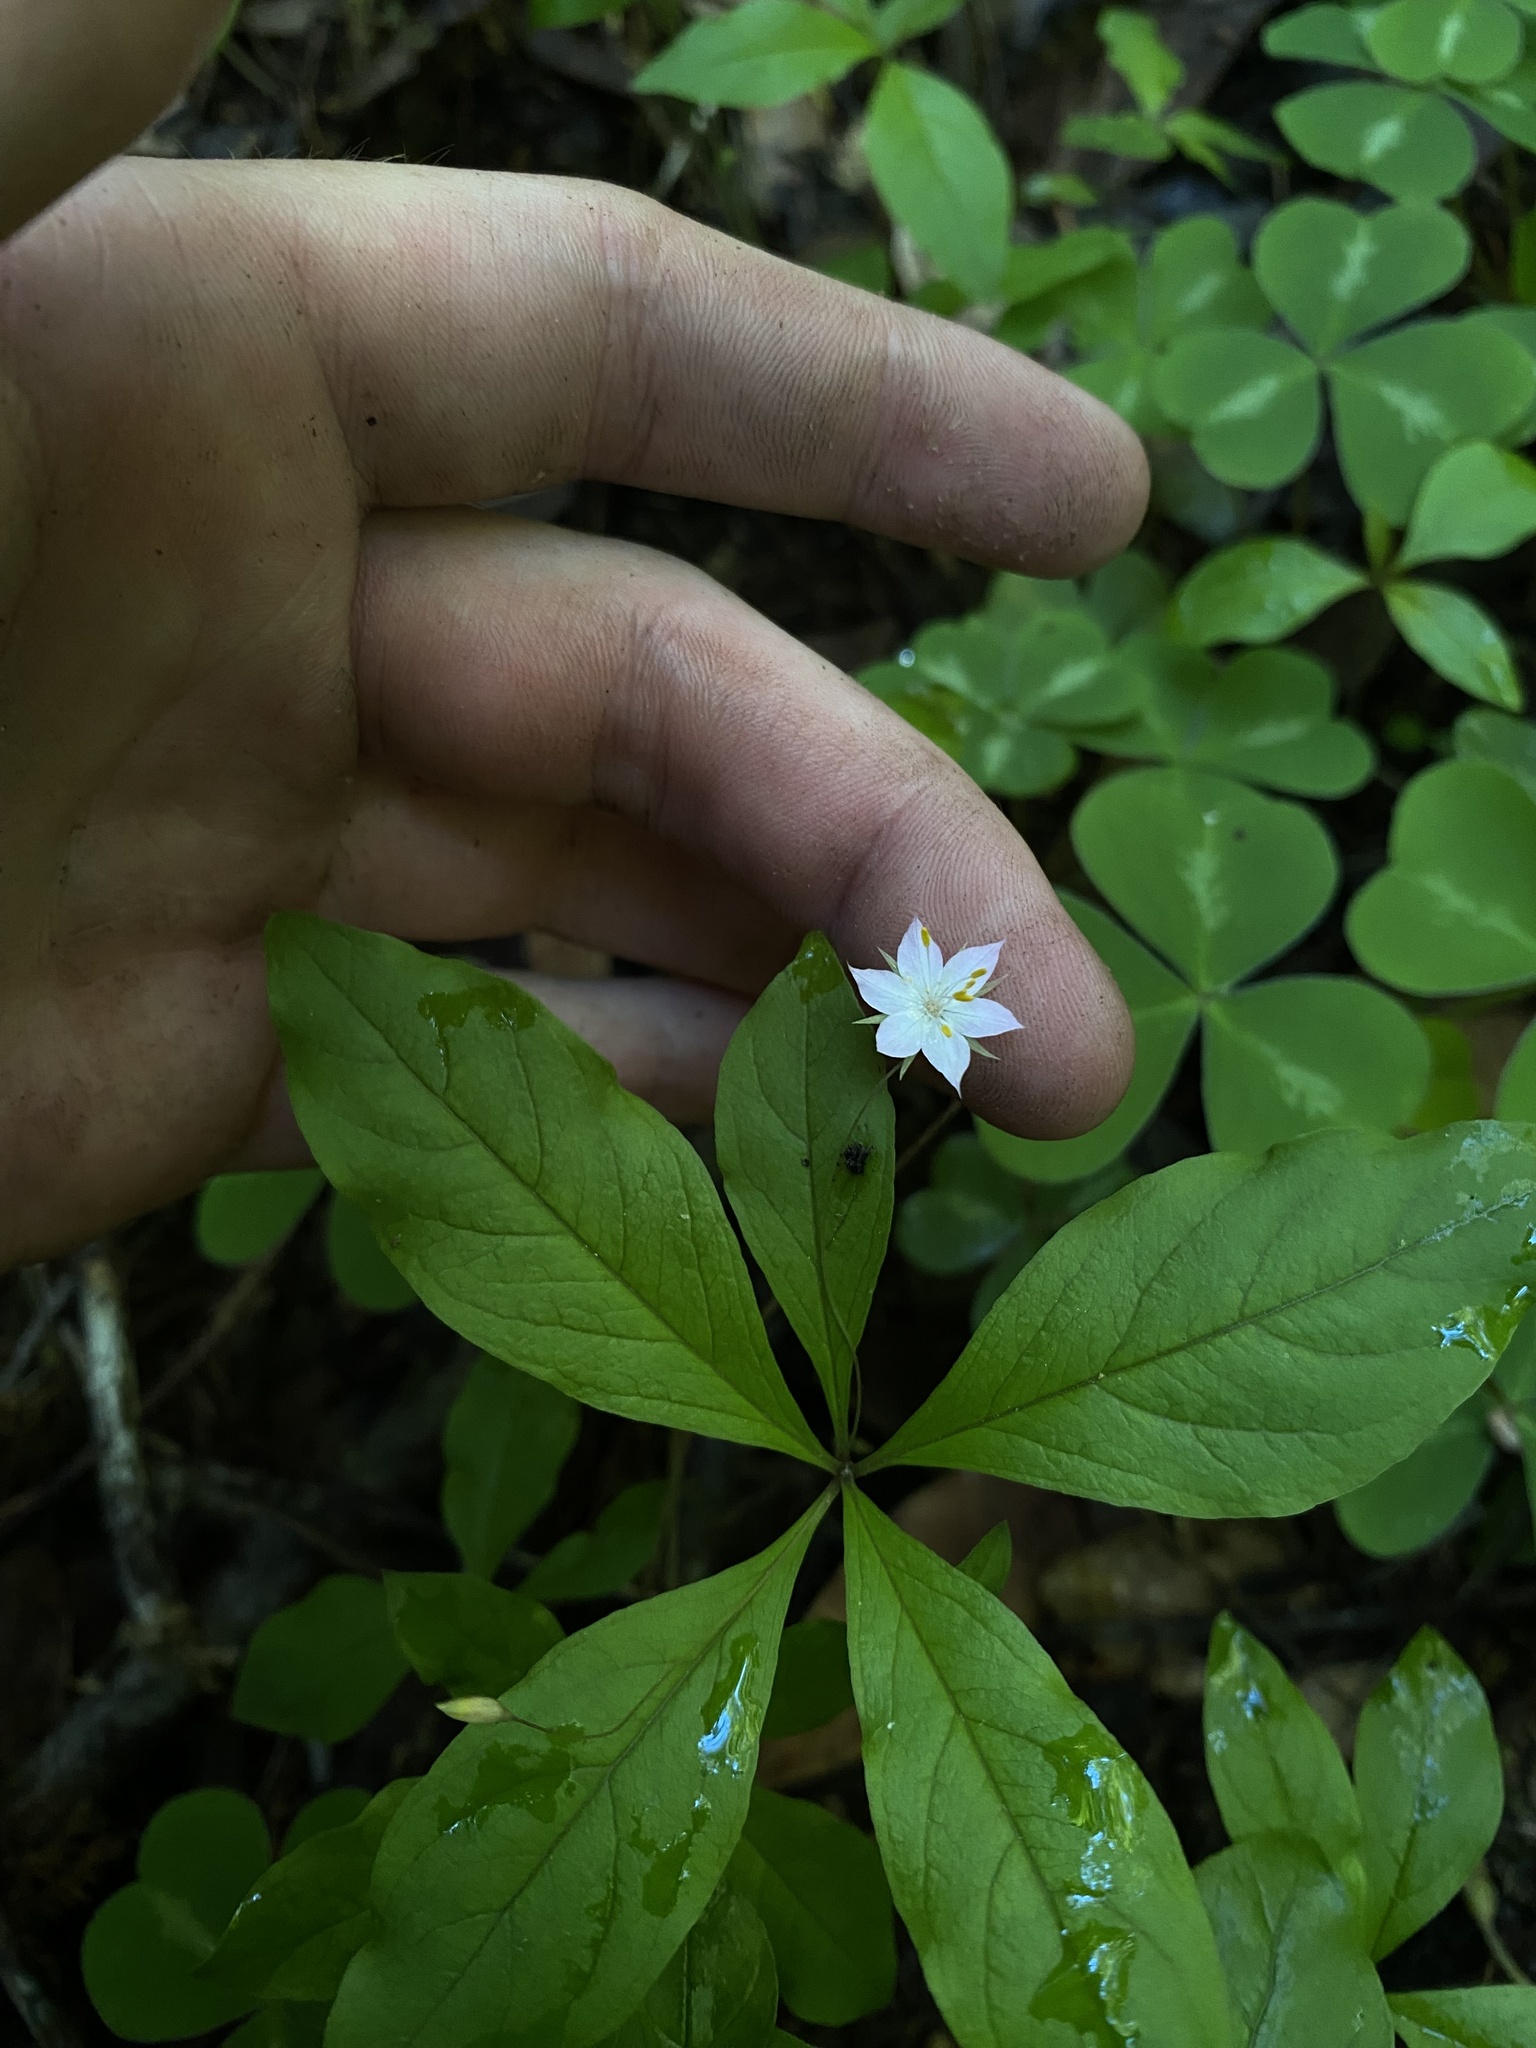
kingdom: Plantae
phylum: Tracheophyta
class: Magnoliopsida
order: Ericales
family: Primulaceae
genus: Lysimachia
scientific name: Lysimachia latifolia
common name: Pacific starflower
